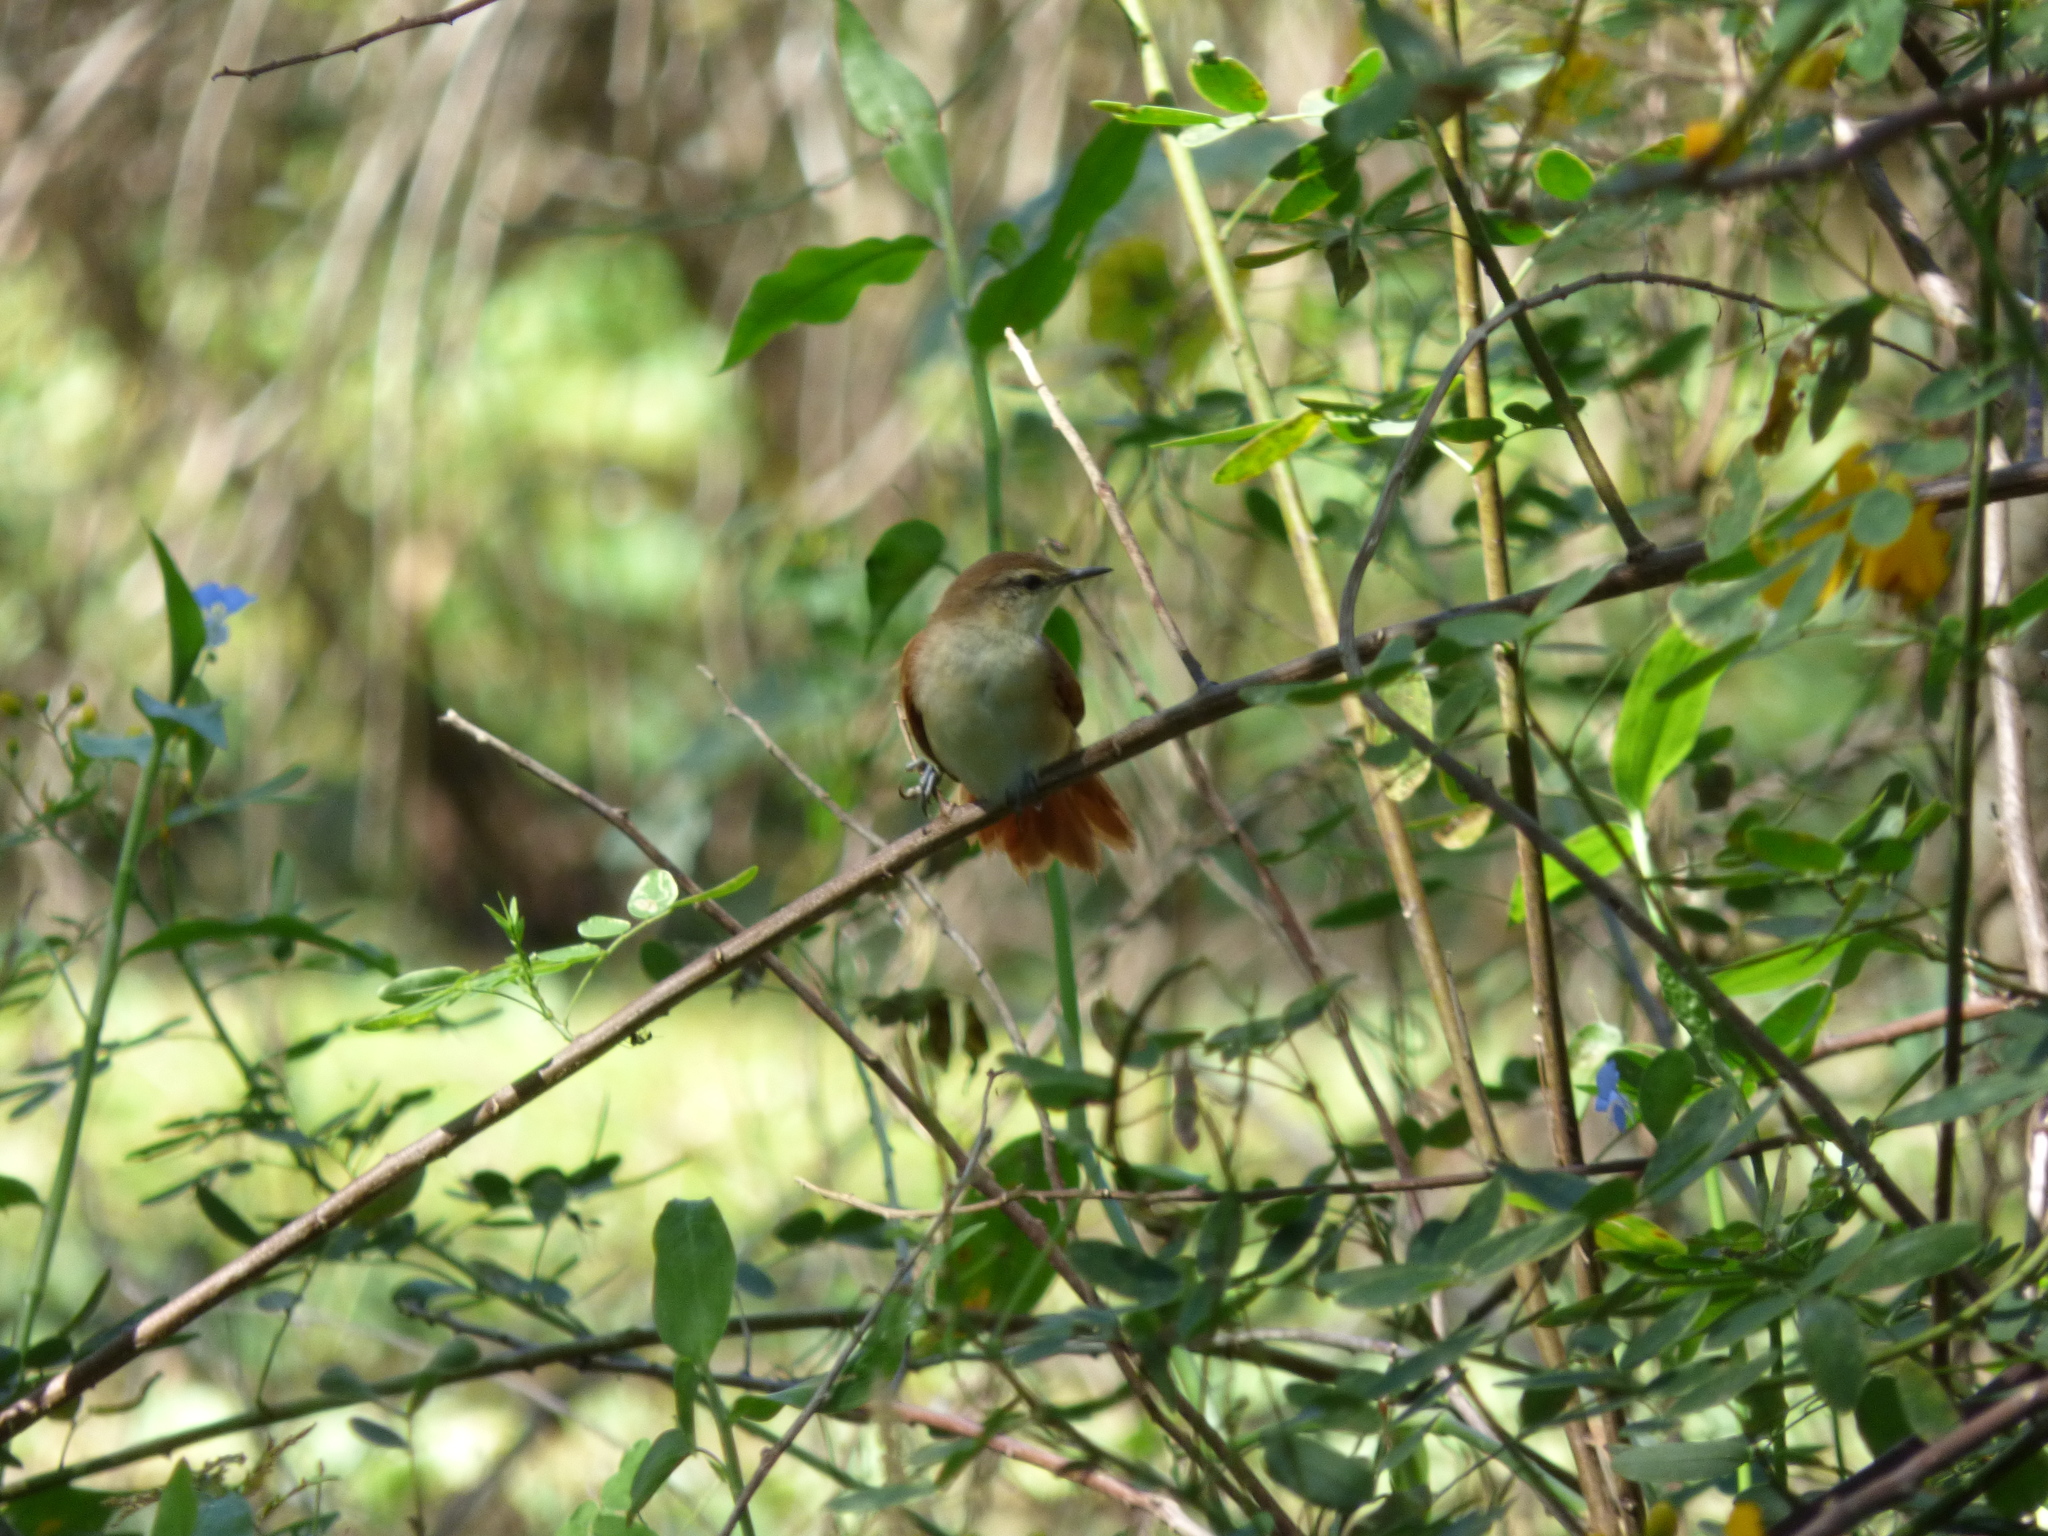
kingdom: Animalia
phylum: Chordata
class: Aves
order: Passeriformes
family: Furnariidae
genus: Certhiaxis
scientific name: Certhiaxis cinnamomeus
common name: Yellow-chinned spinetail
